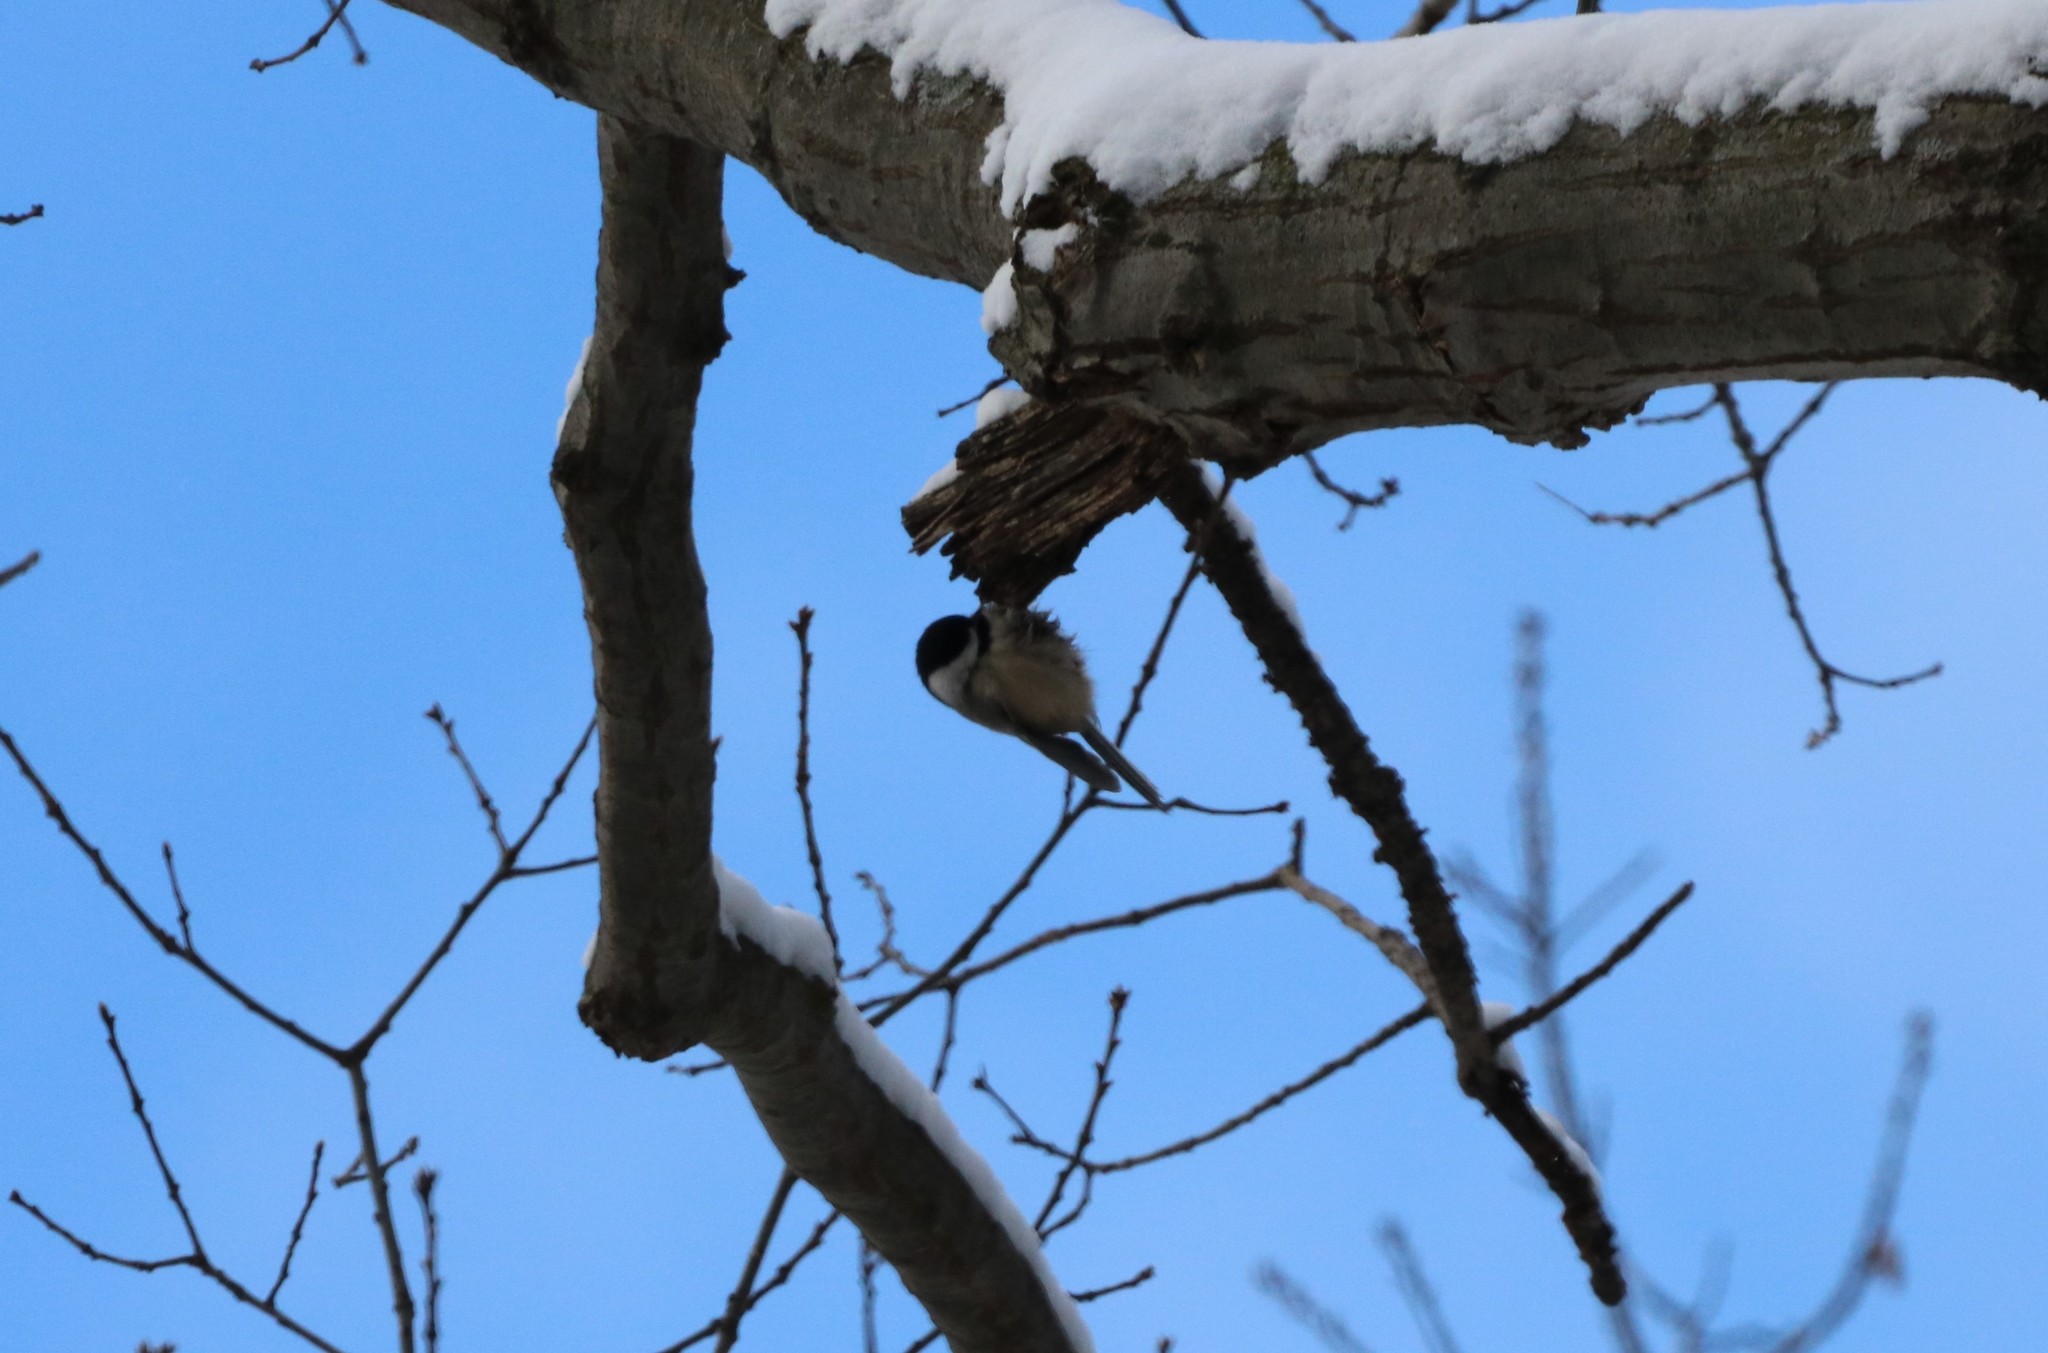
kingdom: Animalia
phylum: Chordata
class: Aves
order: Passeriformes
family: Paridae
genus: Poecile
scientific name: Poecile atricapillus
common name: Black-capped chickadee
